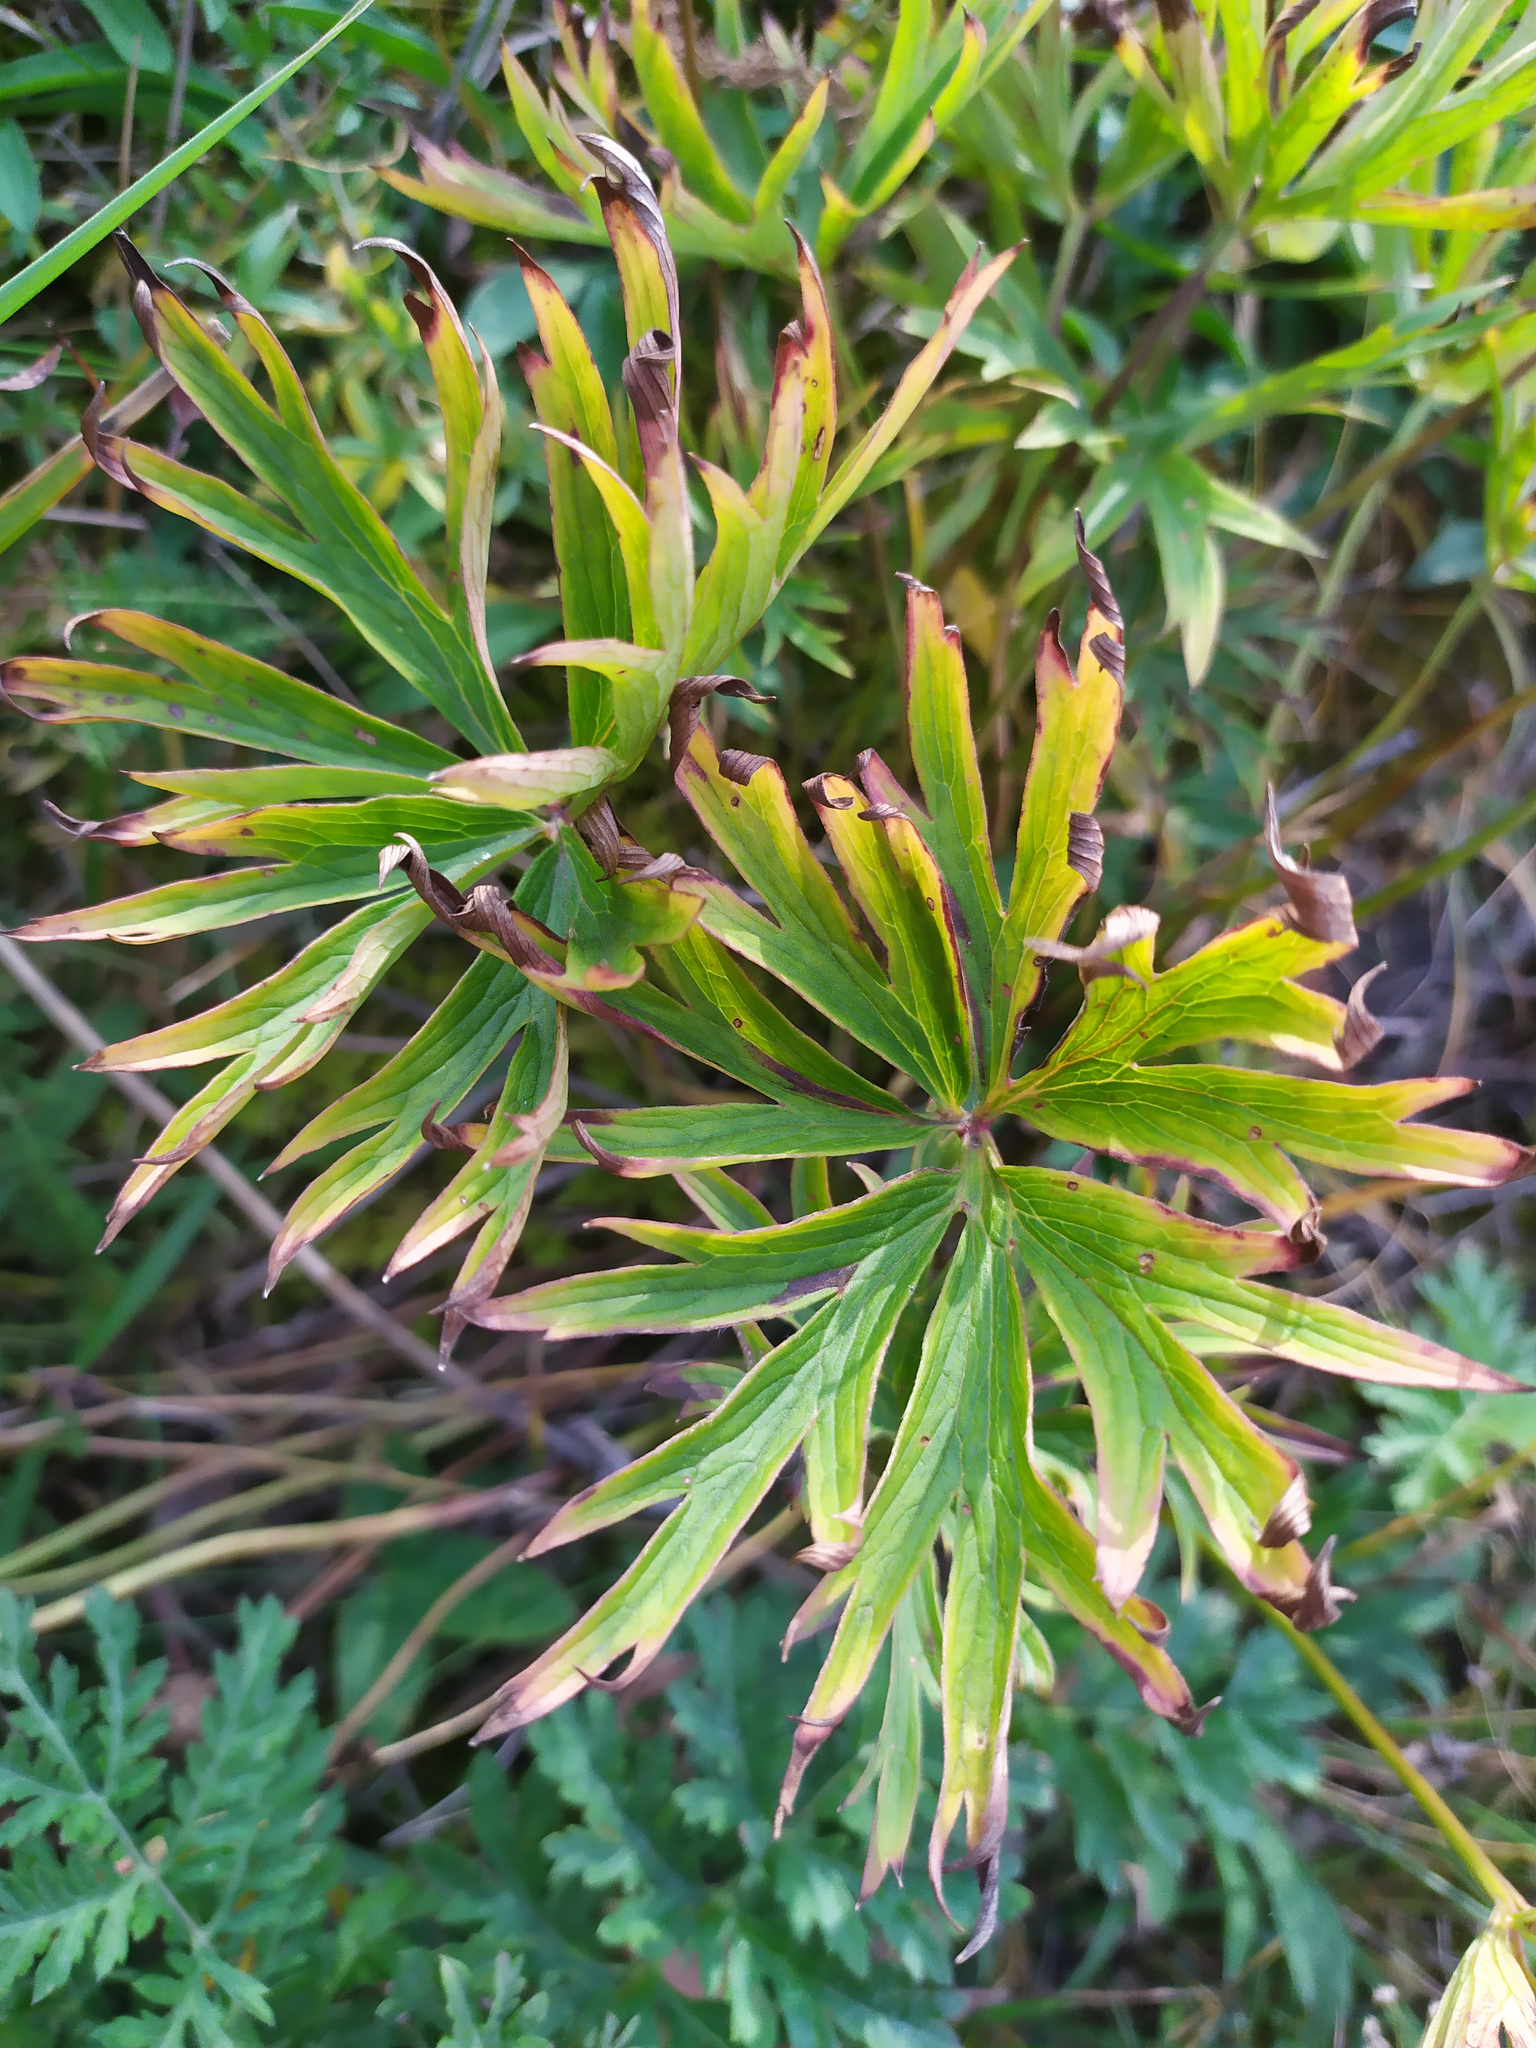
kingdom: Plantae
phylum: Tracheophyta
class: Magnoliopsida
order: Ranunculales
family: Ranunculaceae
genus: Pulsatilla
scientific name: Pulsatilla patens
